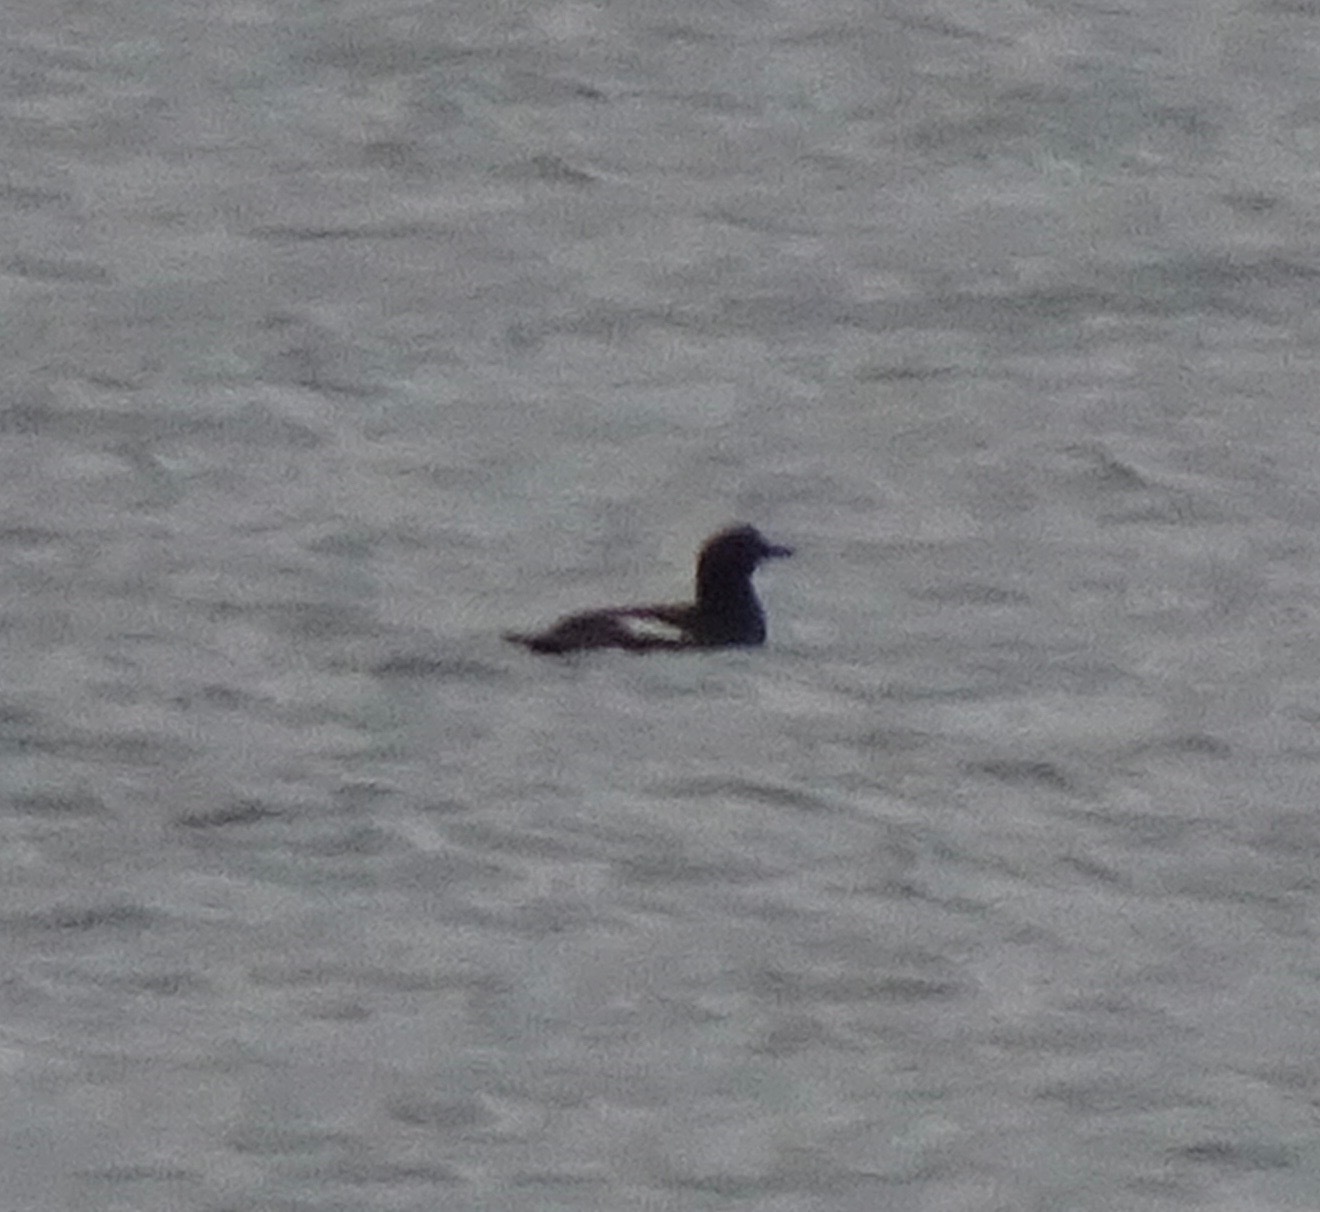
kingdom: Animalia
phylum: Chordata
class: Aves
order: Charadriiformes
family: Alcidae
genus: Cepphus
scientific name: Cepphus grylle
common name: Black guillemot
